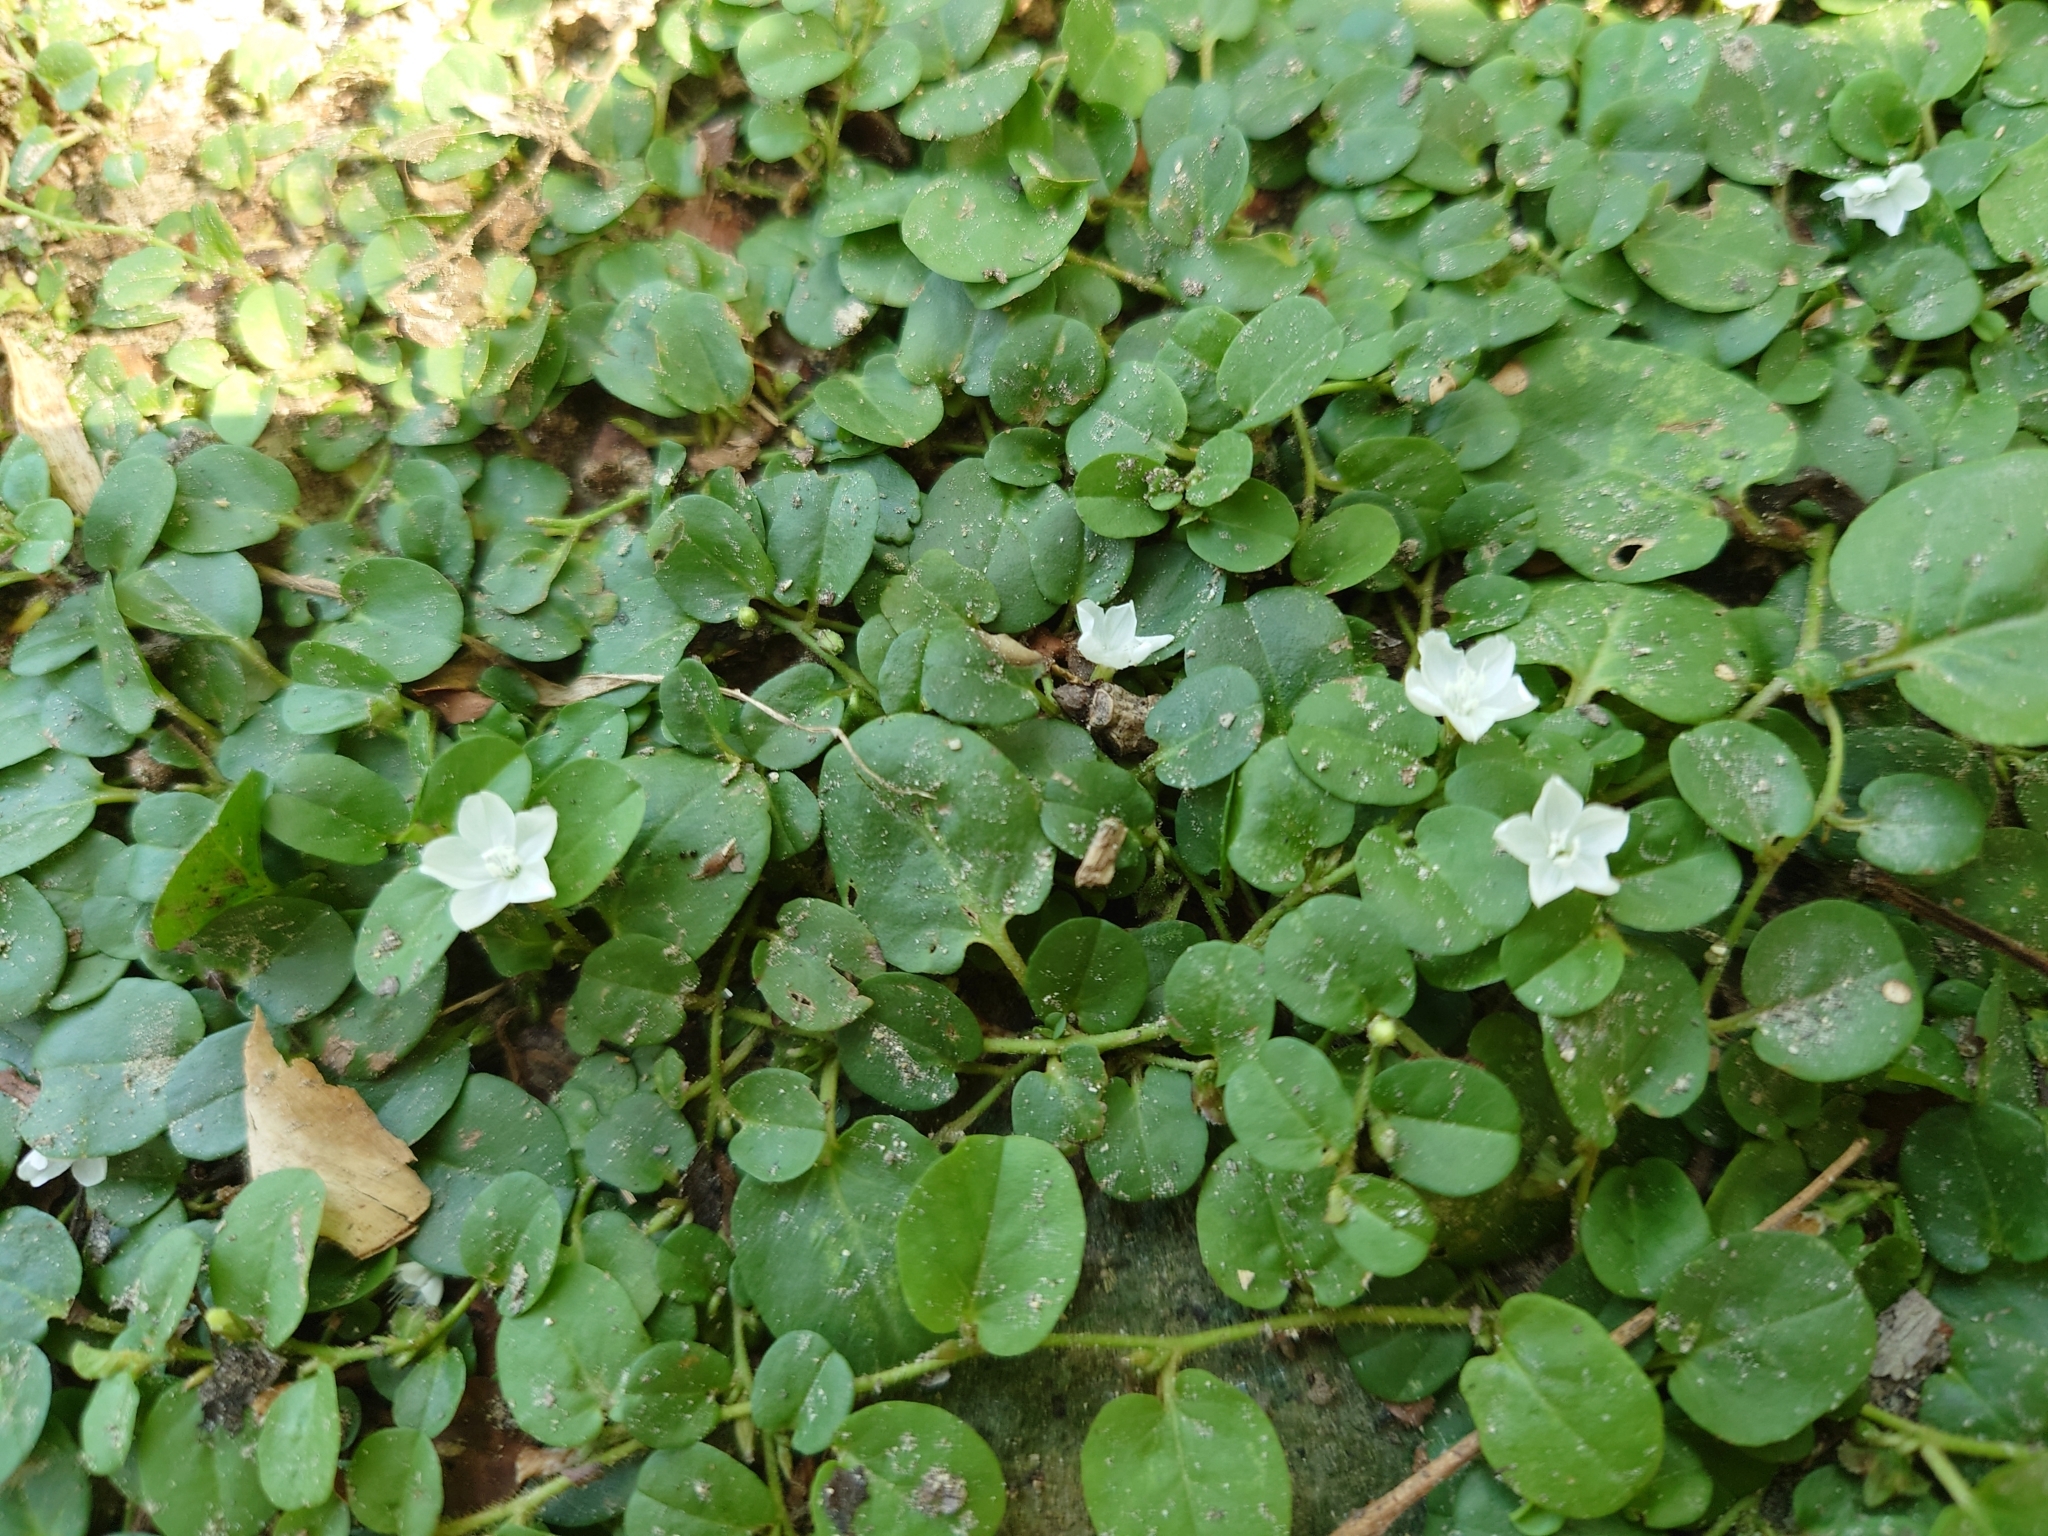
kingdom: Plantae
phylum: Tracheophyta
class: Magnoliopsida
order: Solanales
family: Convolvulaceae
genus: Evolvulus
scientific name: Evolvulus nummularius
